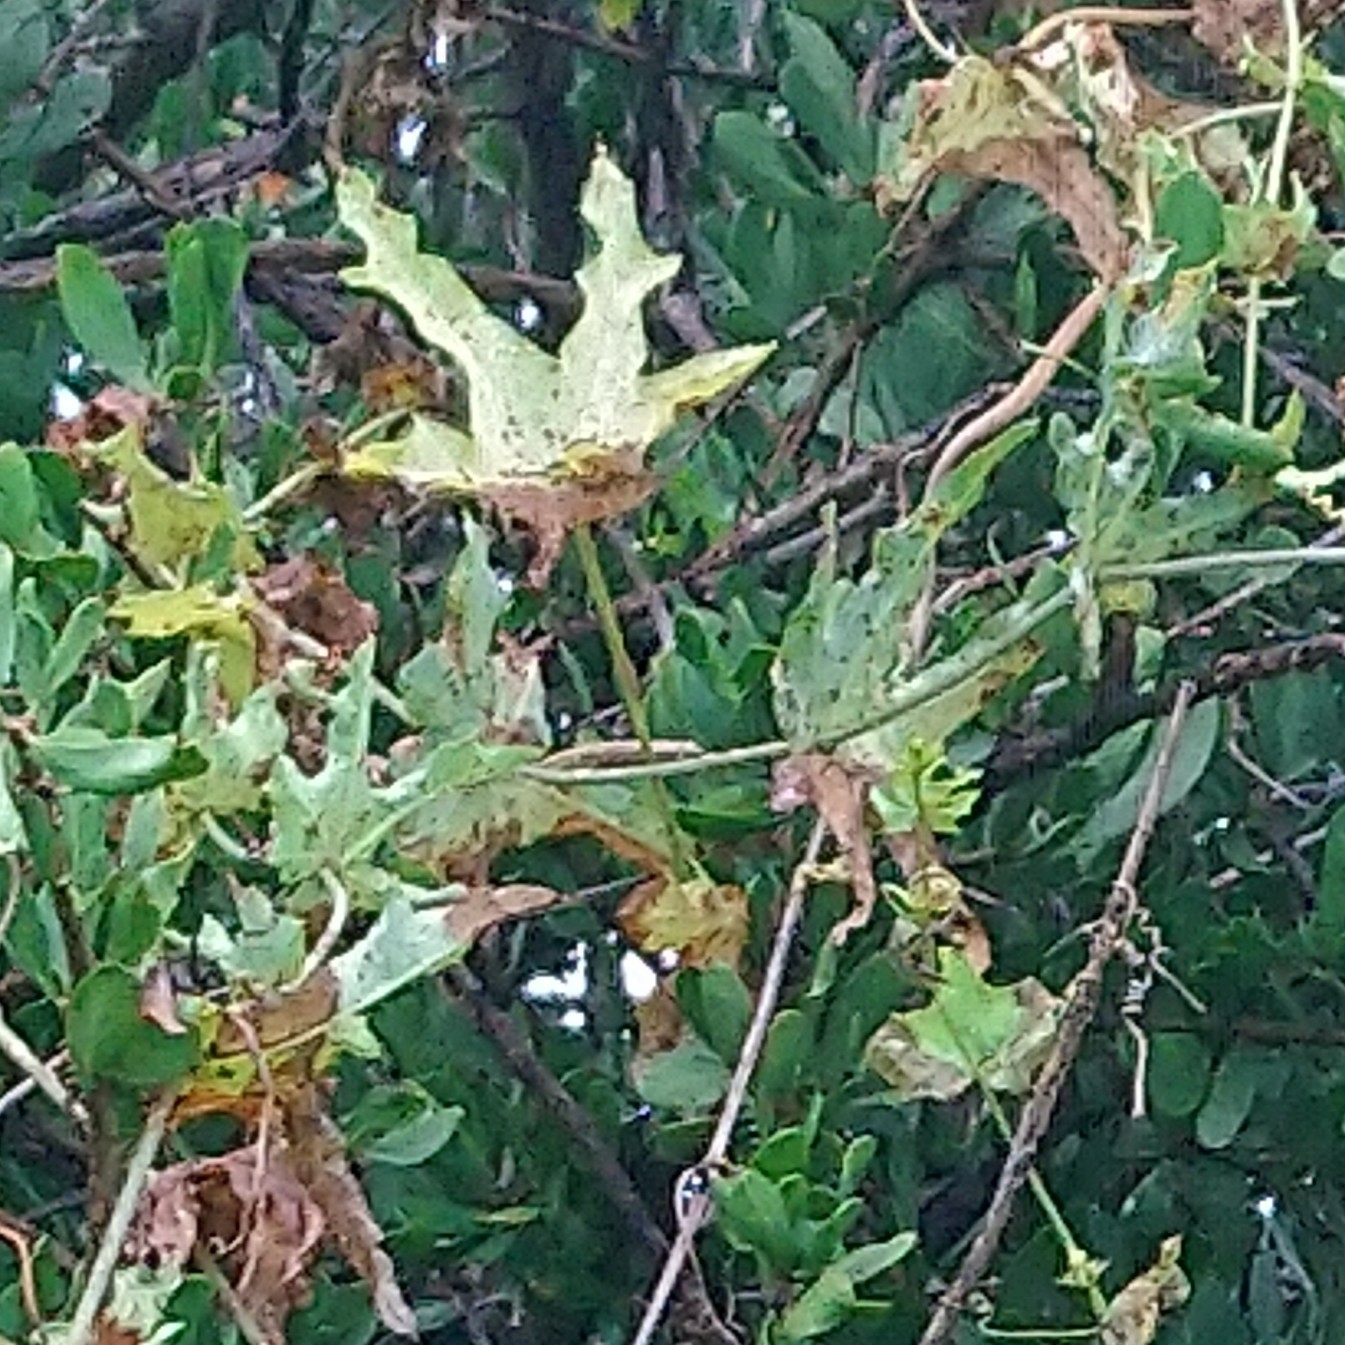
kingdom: Plantae
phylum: Tracheophyta
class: Magnoliopsida
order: Cucurbitales
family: Cucurbitaceae
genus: Coccinia
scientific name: Coccinia sessilifolia
